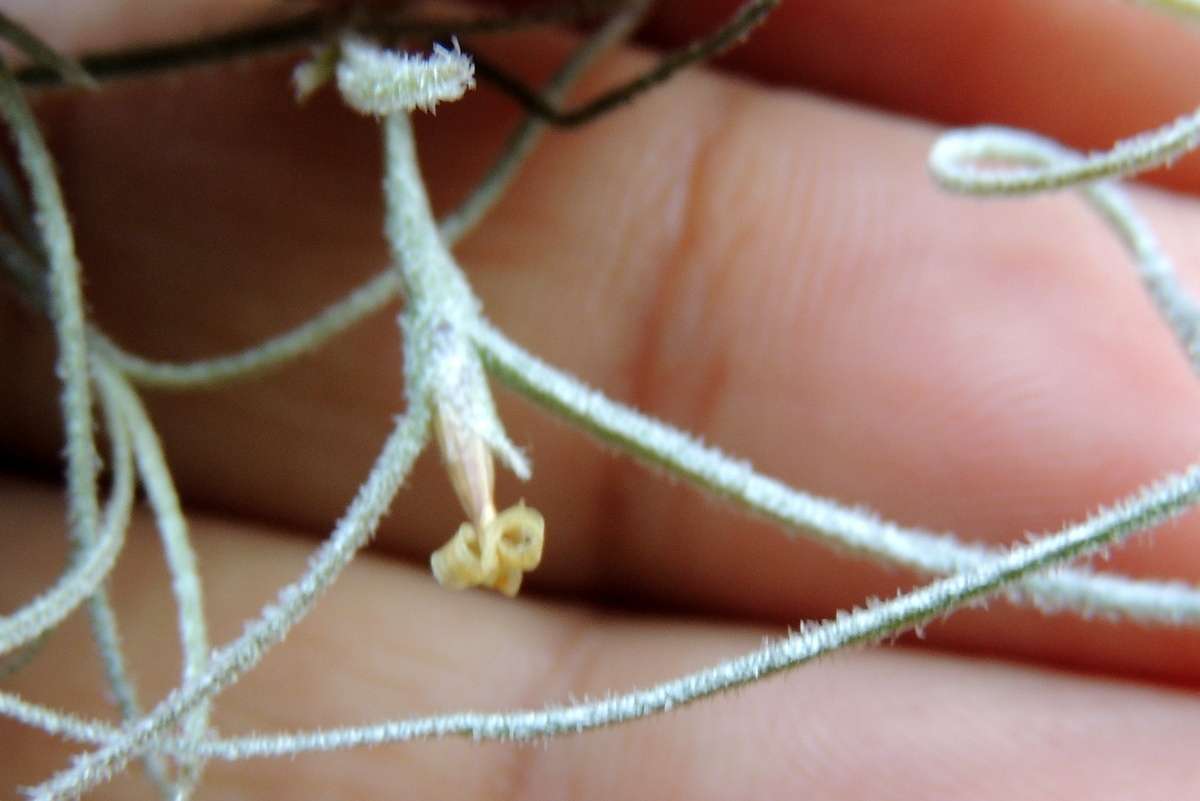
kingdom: Plantae
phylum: Tracheophyta
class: Liliopsida
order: Poales
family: Bromeliaceae
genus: Tillandsia
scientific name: Tillandsia usneoides
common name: Spanish moss
